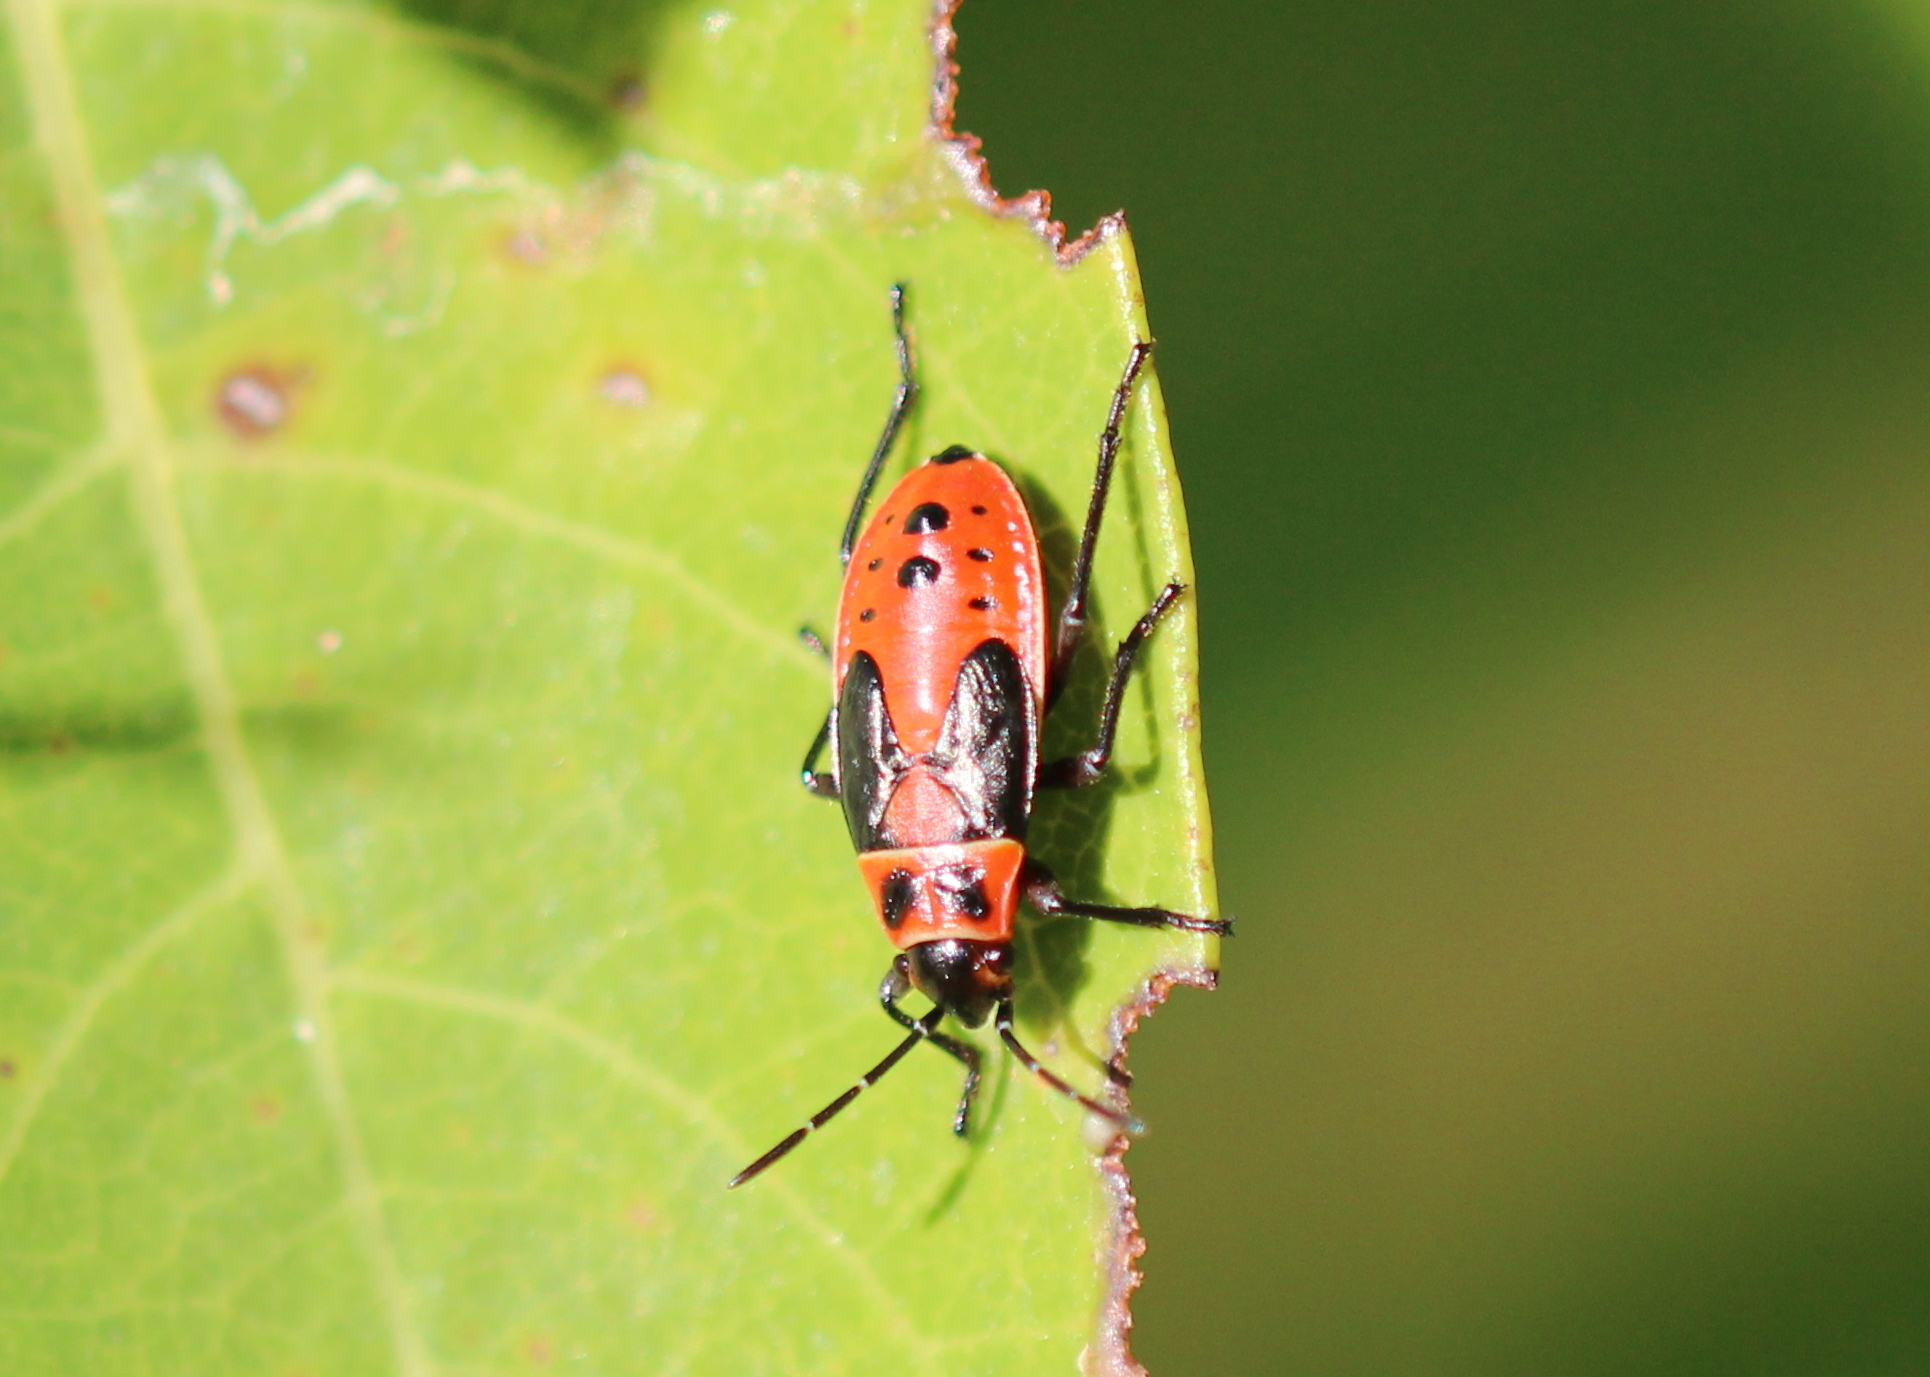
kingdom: Animalia
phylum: Arthropoda
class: Insecta
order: Hemiptera
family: Lygaeidae
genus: Lygaeus
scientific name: Lygaeus kalmii
